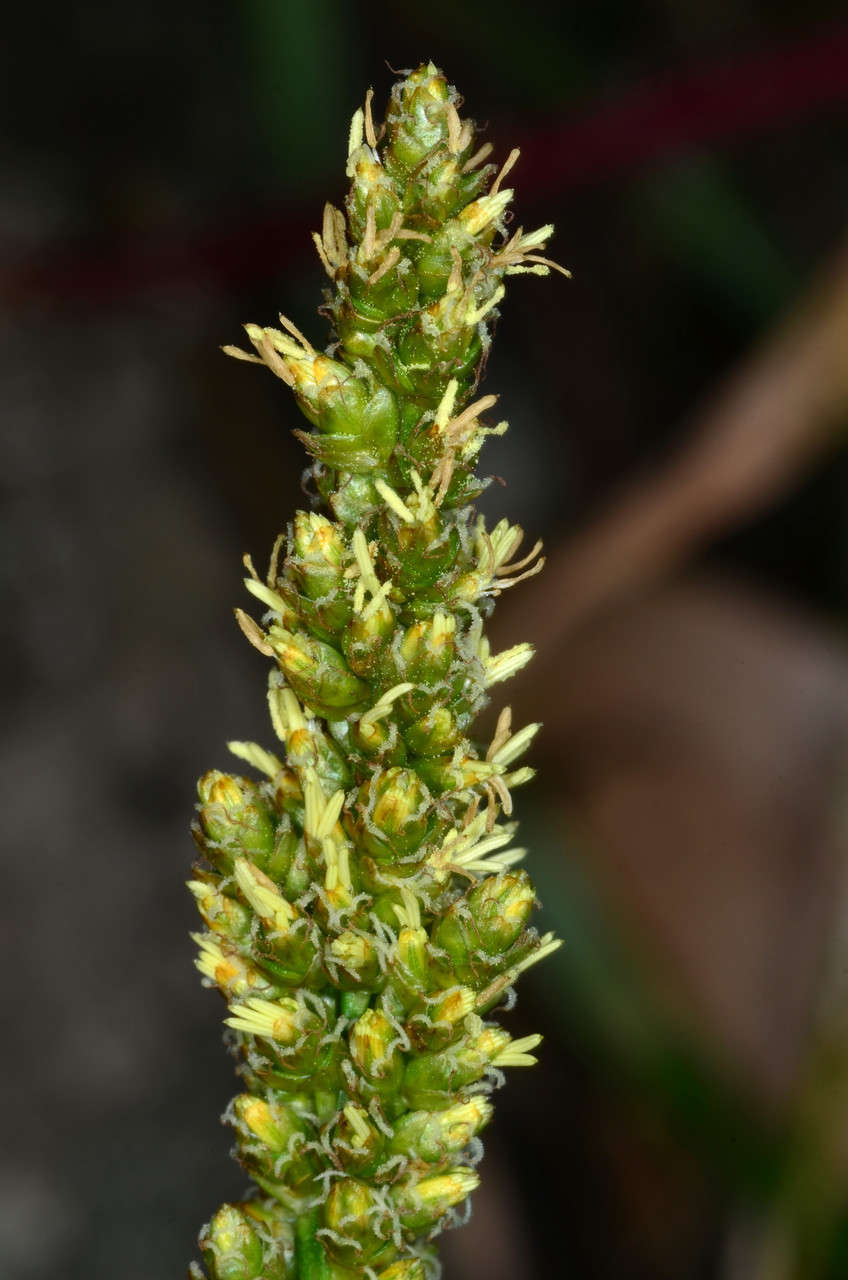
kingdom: Plantae
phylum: Tracheophyta
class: Liliopsida
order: Poales
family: Cyperaceae
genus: Carex
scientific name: Carex incomitata
